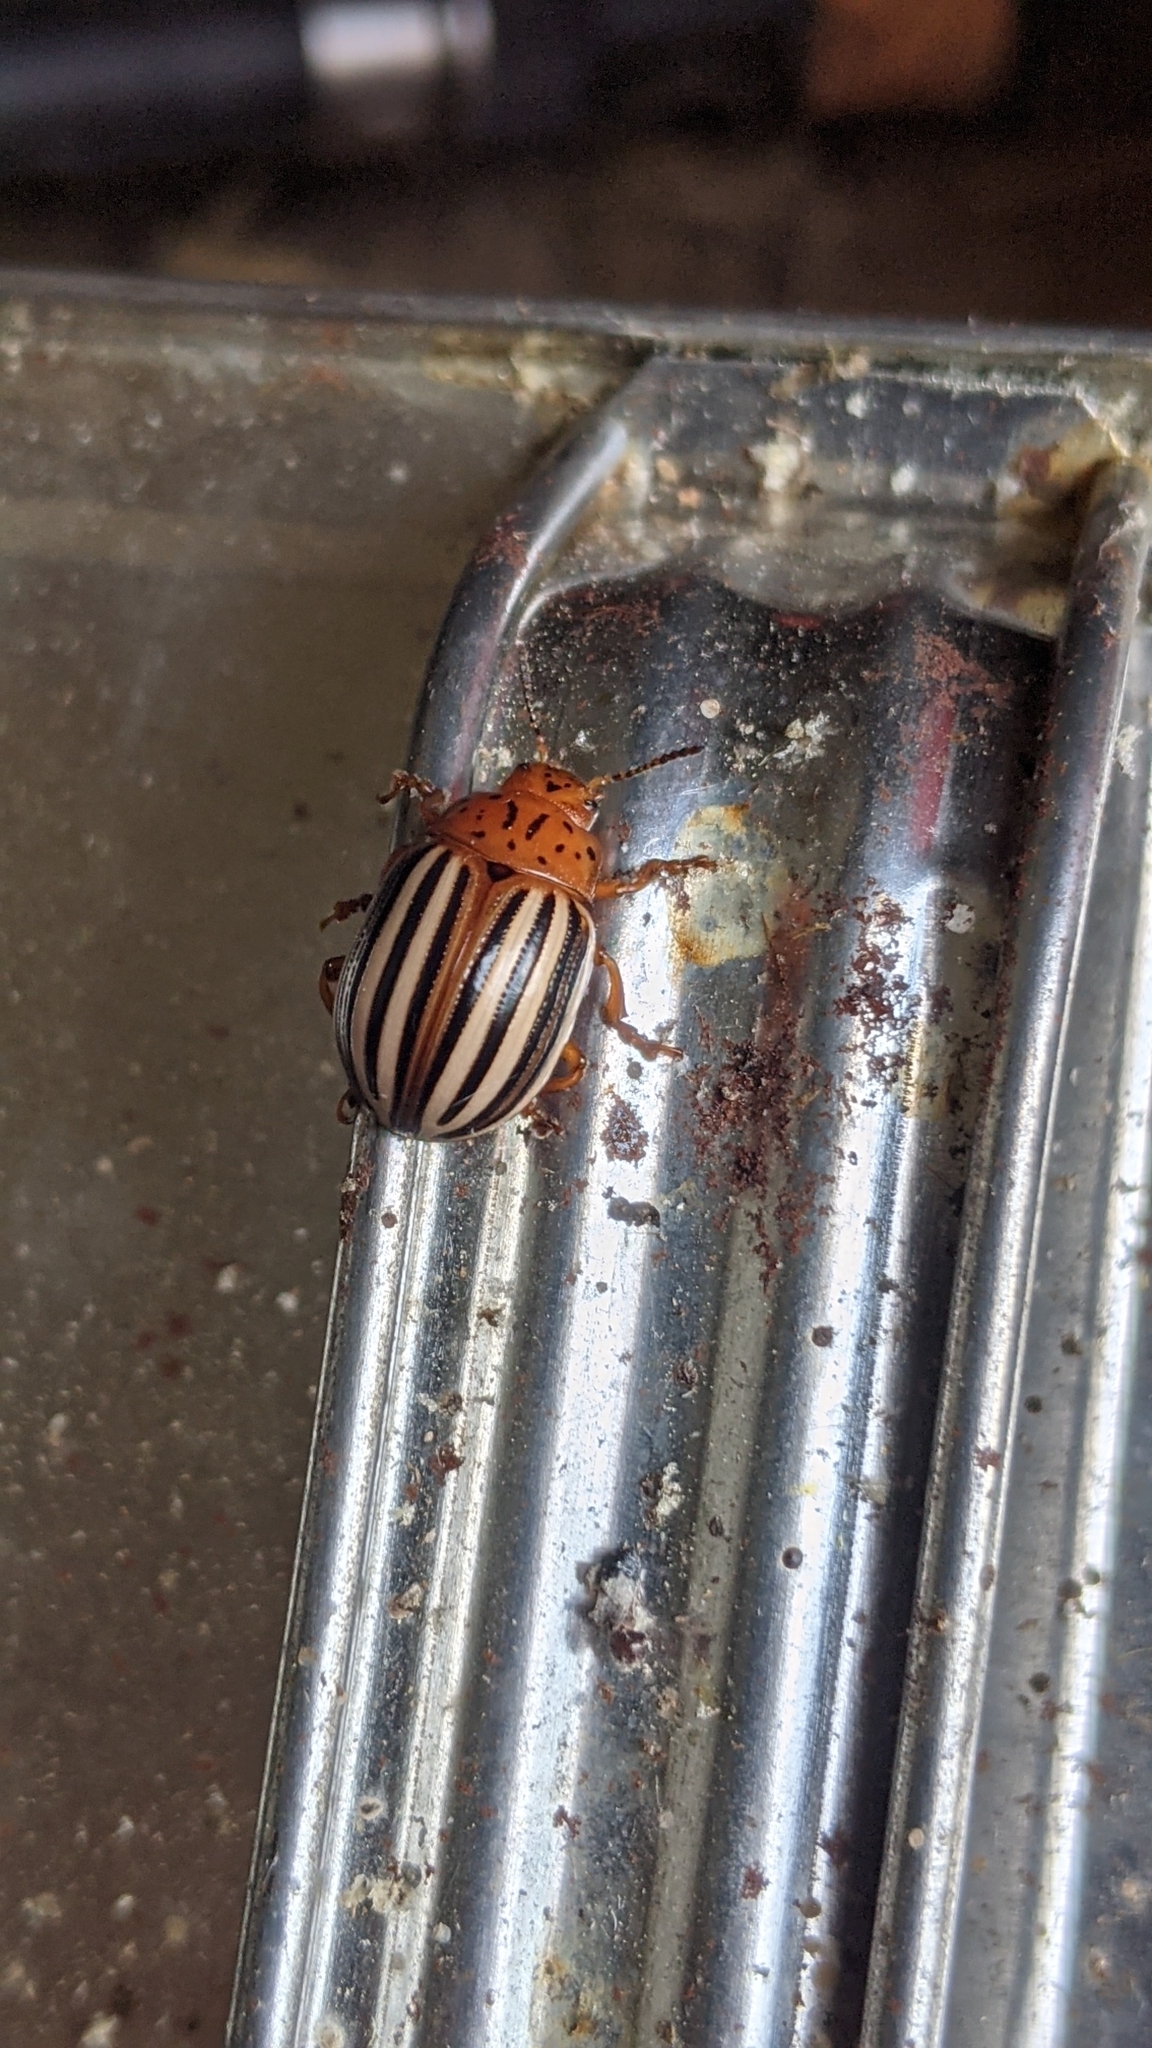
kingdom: Animalia
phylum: Arthropoda
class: Insecta
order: Coleoptera
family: Chrysomelidae
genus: Leptinotarsa
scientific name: Leptinotarsa juncta
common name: False potato beetle
